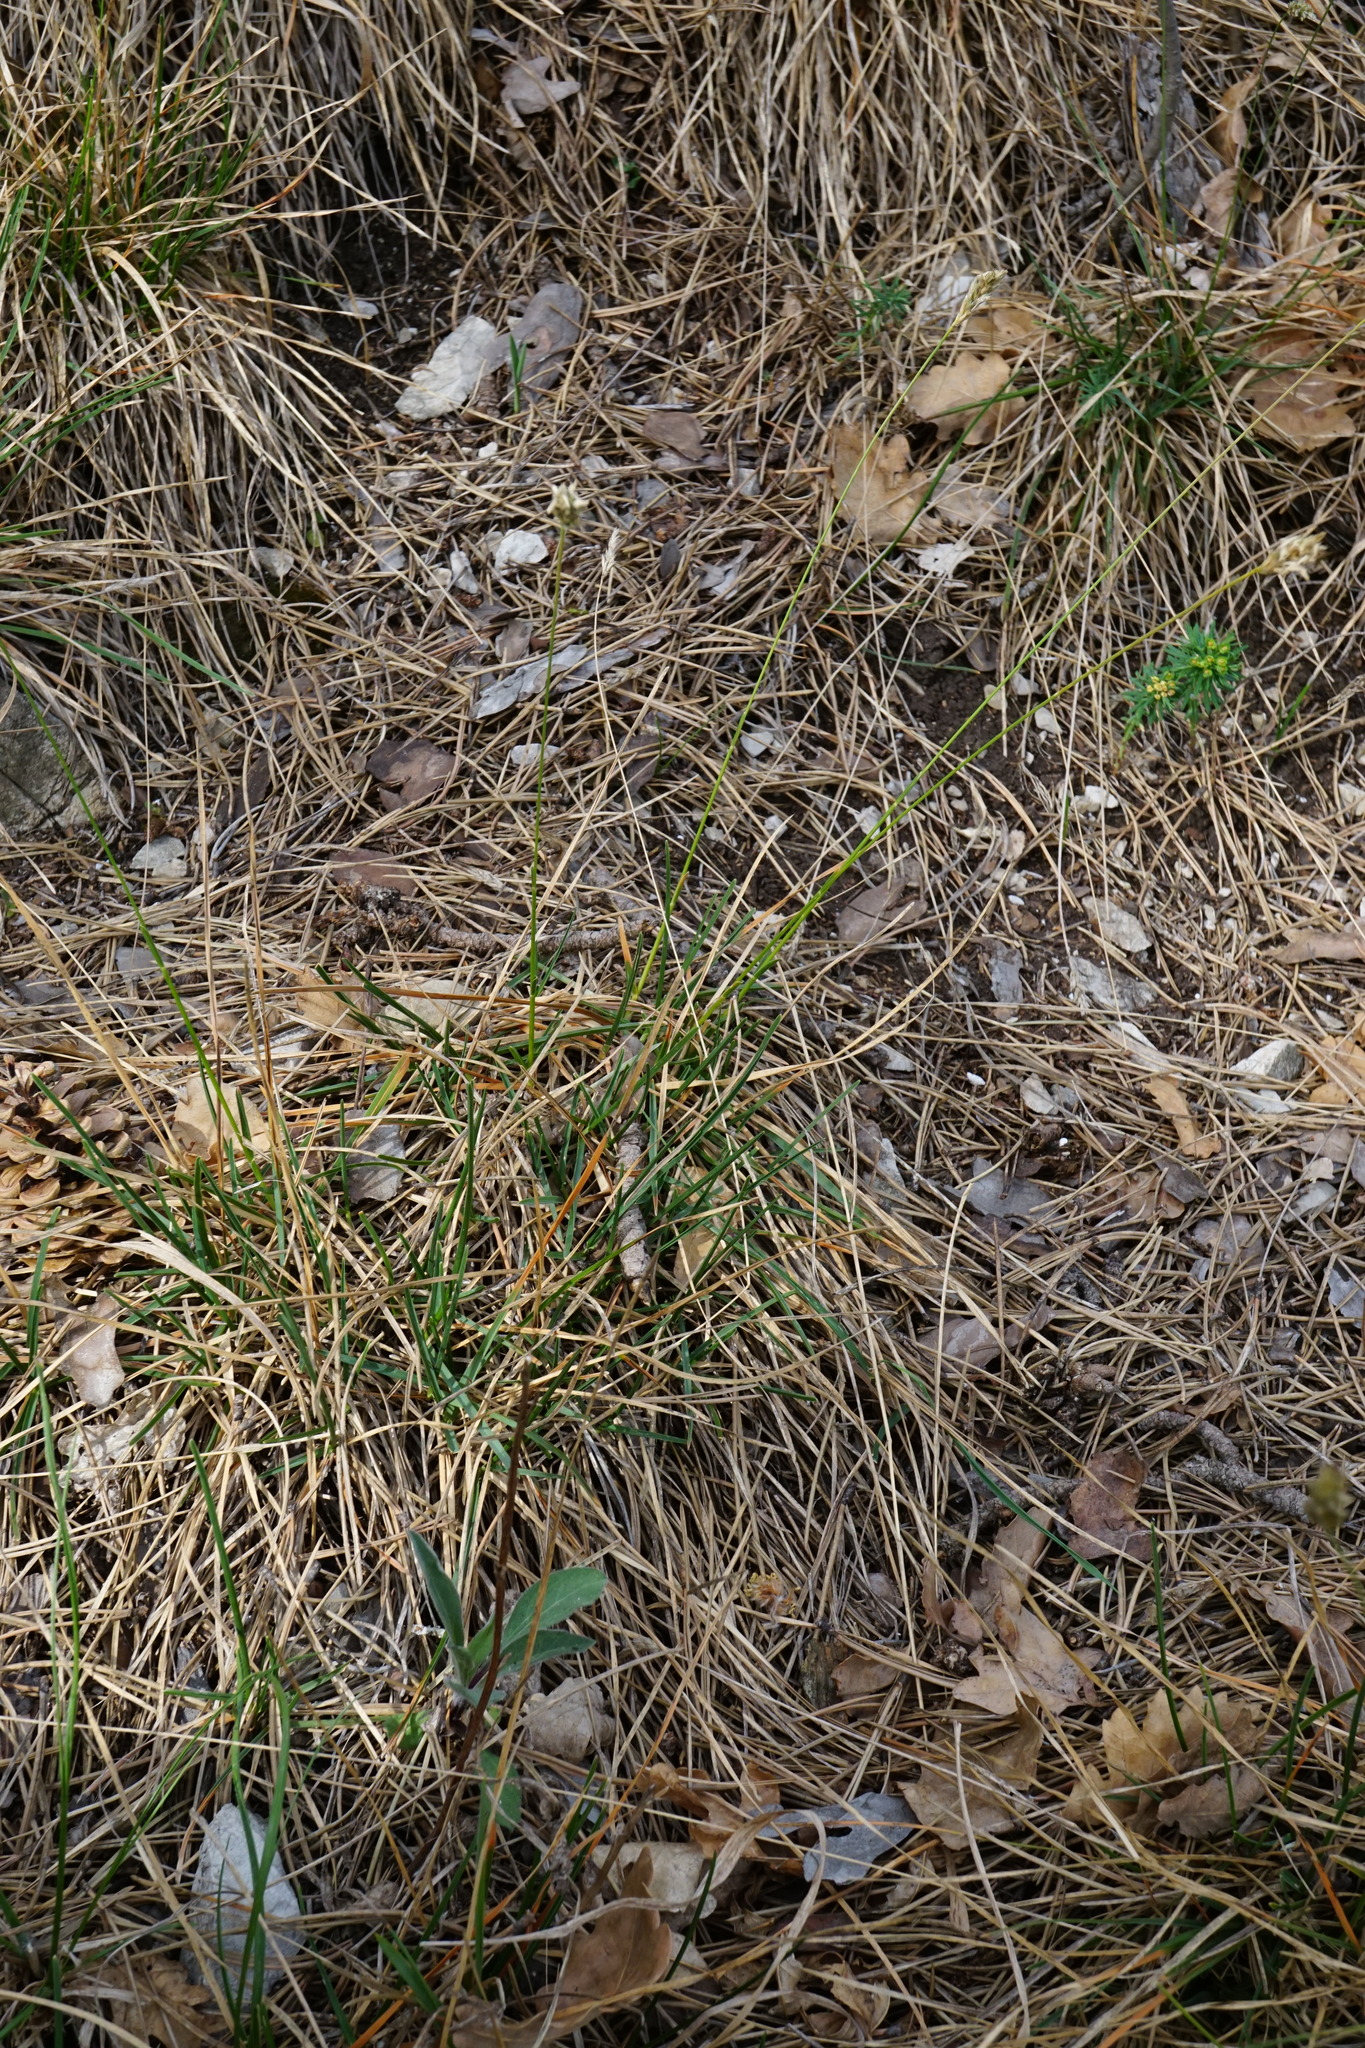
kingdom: Plantae
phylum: Tracheophyta
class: Liliopsida
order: Poales
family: Poaceae
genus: Sesleria
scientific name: Sesleria caerulea
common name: Blue moor-grass
